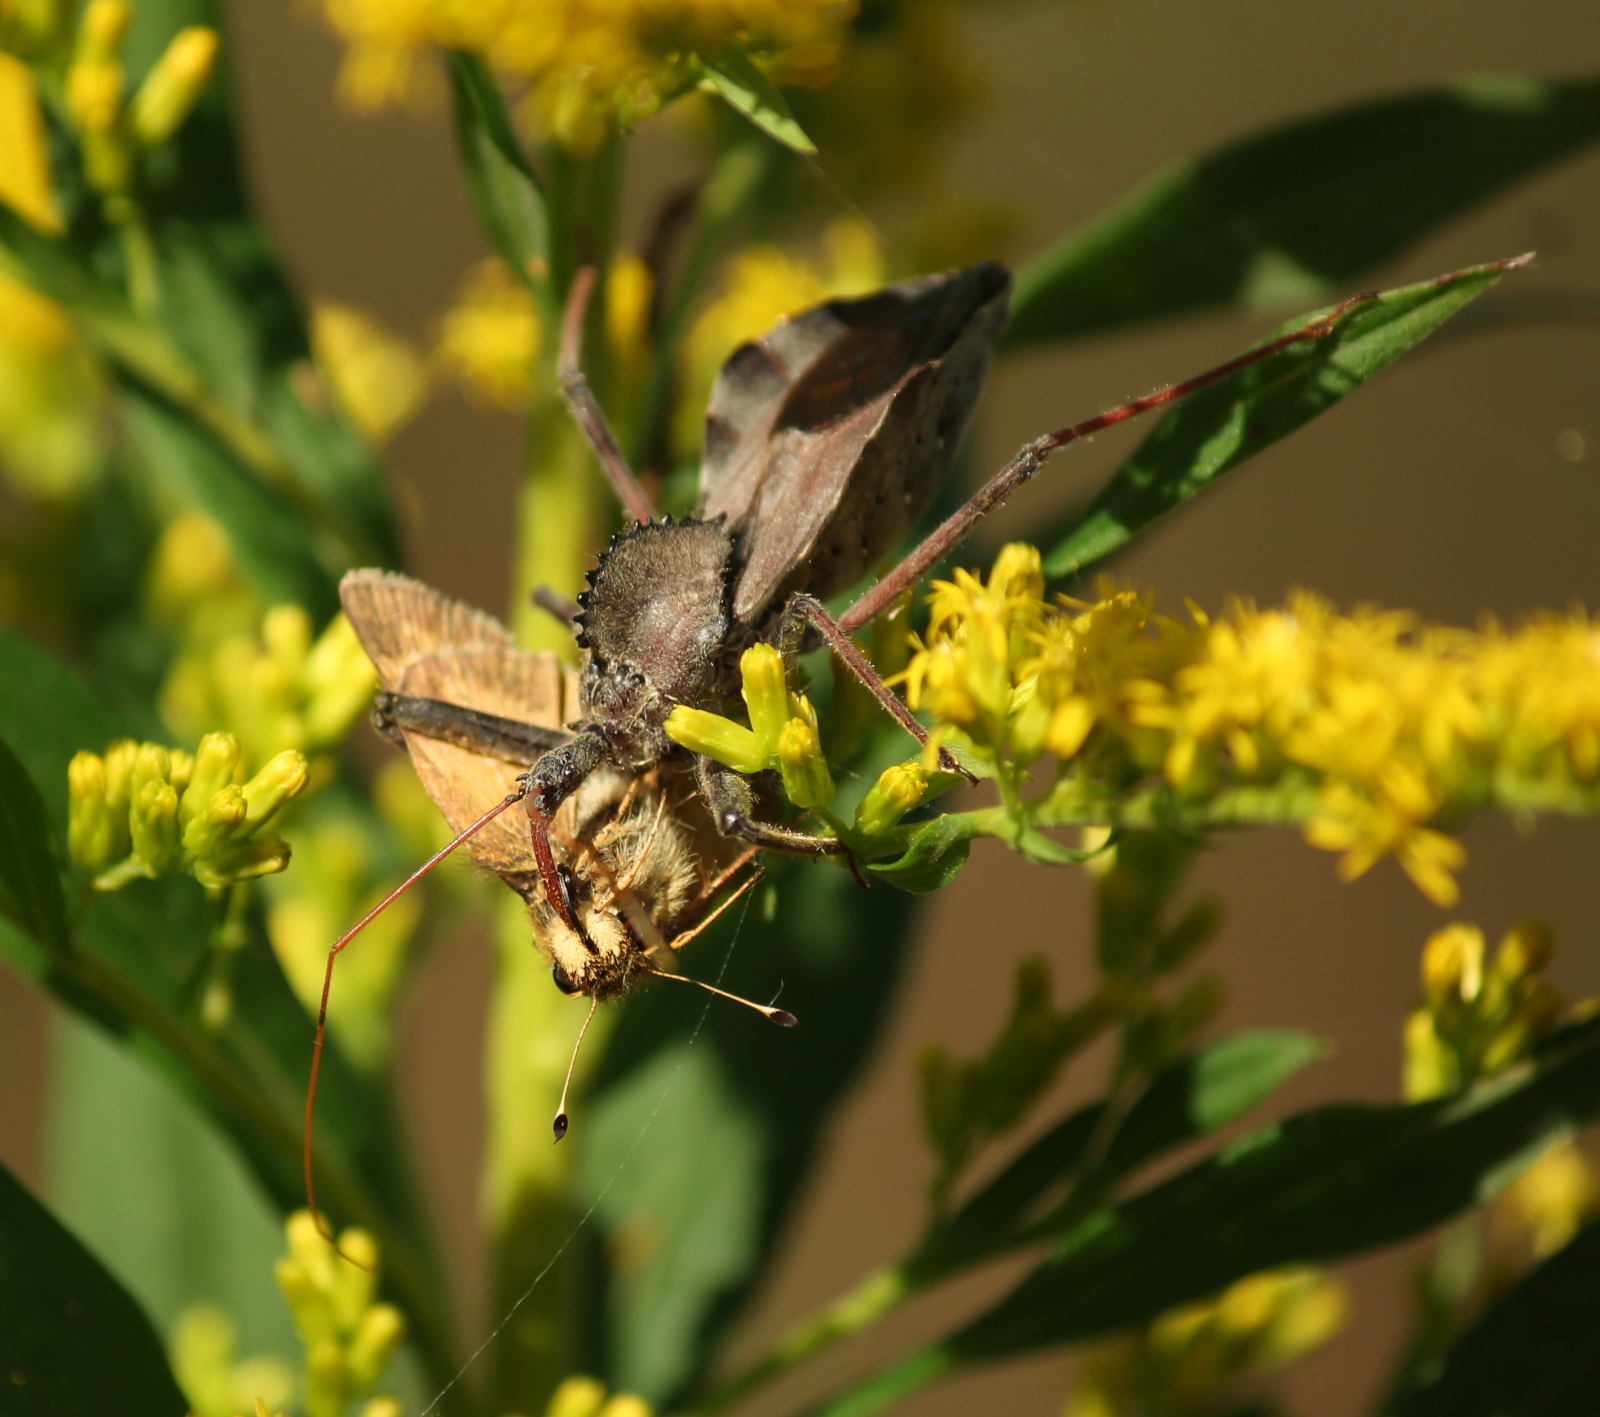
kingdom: Animalia
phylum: Arthropoda
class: Insecta
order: Hemiptera
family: Reduviidae
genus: Arilus
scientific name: Arilus cristatus
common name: North american wheel bug
